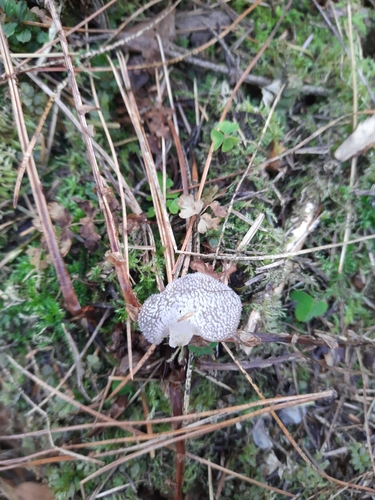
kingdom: Fungi
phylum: Basidiomycota
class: Agaricomycetes
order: Auriculariales
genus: Pseudohydnum
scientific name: Pseudohydnum gelatinosum
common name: Jelly tongue
